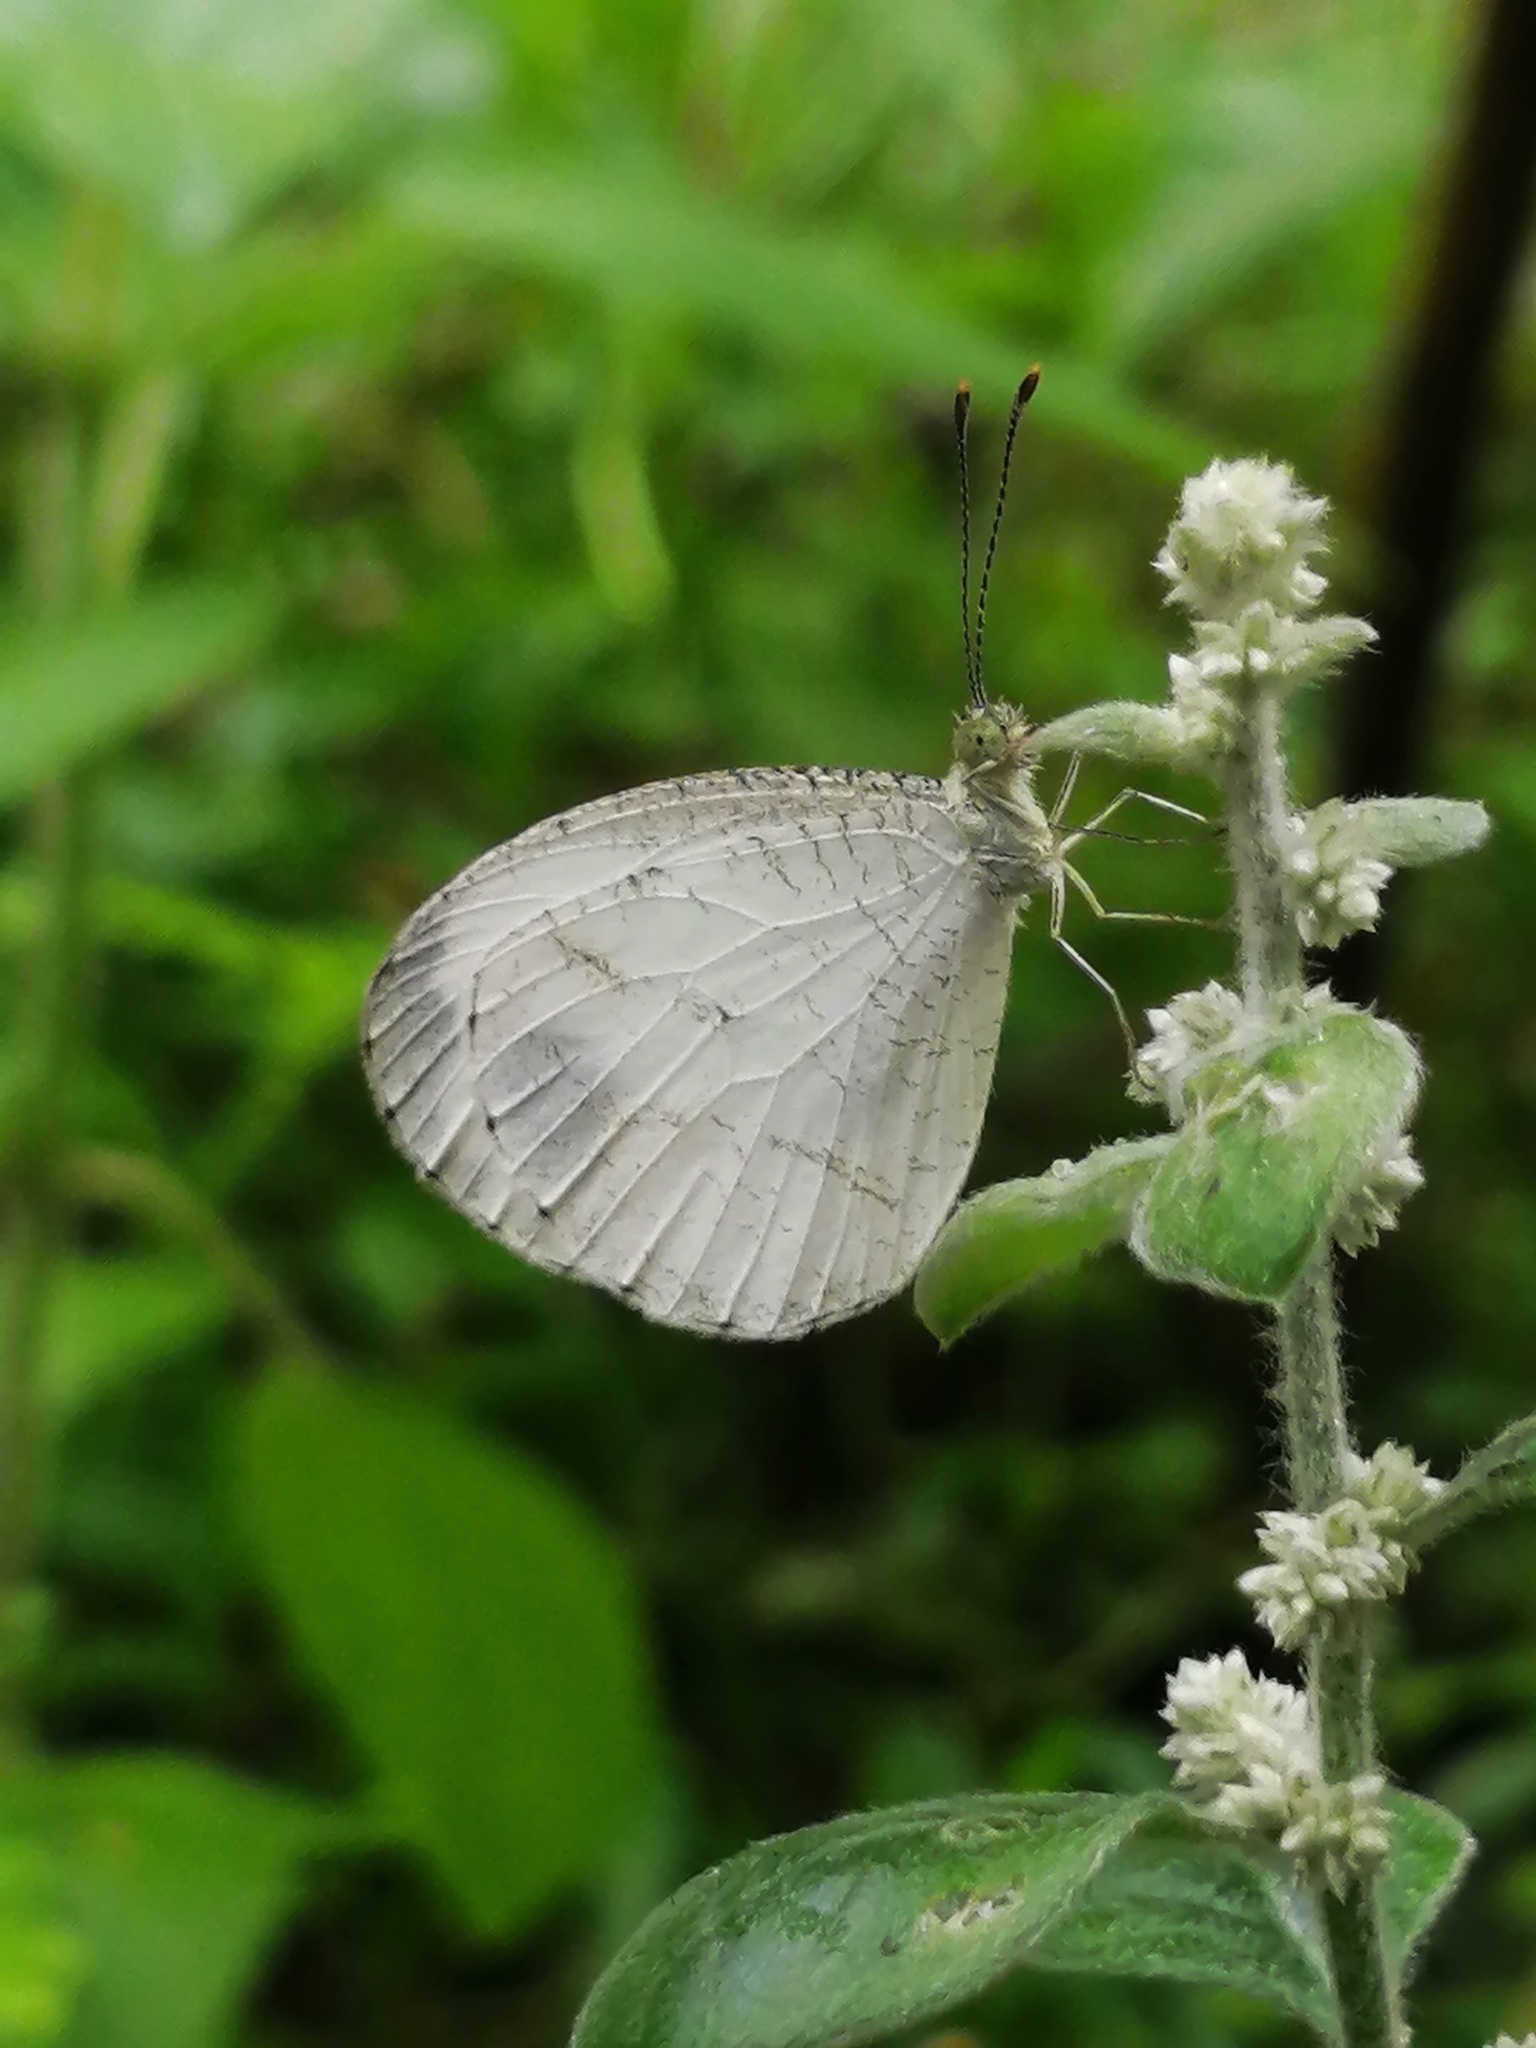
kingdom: Animalia
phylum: Arthropoda
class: Insecta
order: Lepidoptera
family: Pieridae
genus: Leptosia
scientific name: Leptosia nina
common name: Psyche
